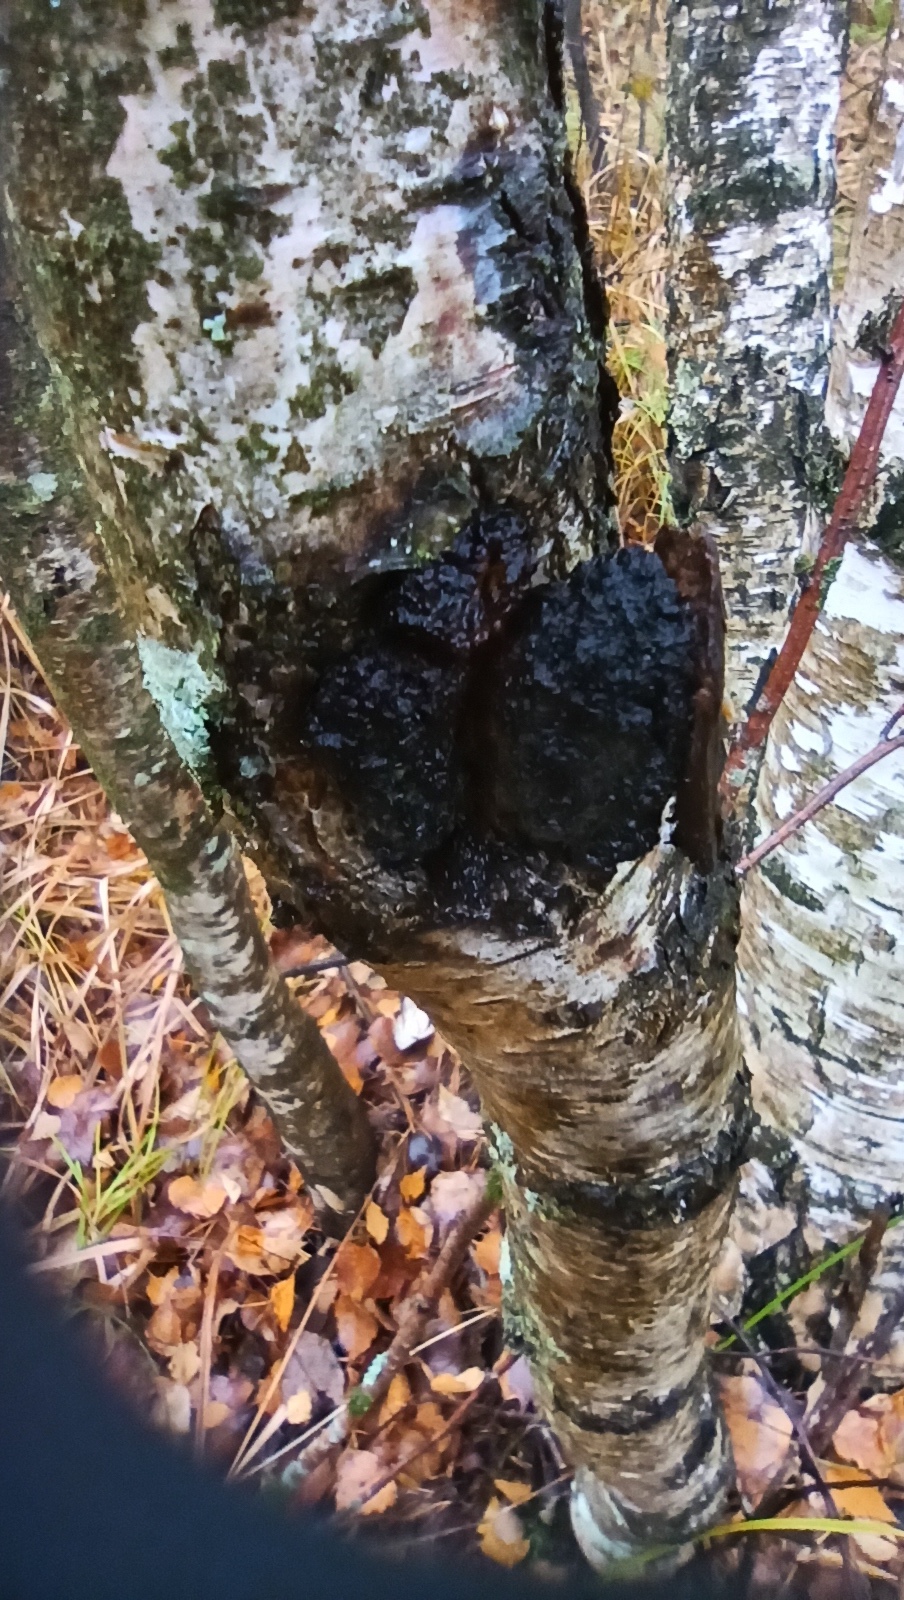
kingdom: Fungi
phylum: Basidiomycota
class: Agaricomycetes
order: Hymenochaetales
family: Hymenochaetaceae
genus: Inonotus
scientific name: Inonotus obliquus
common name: Chaga
